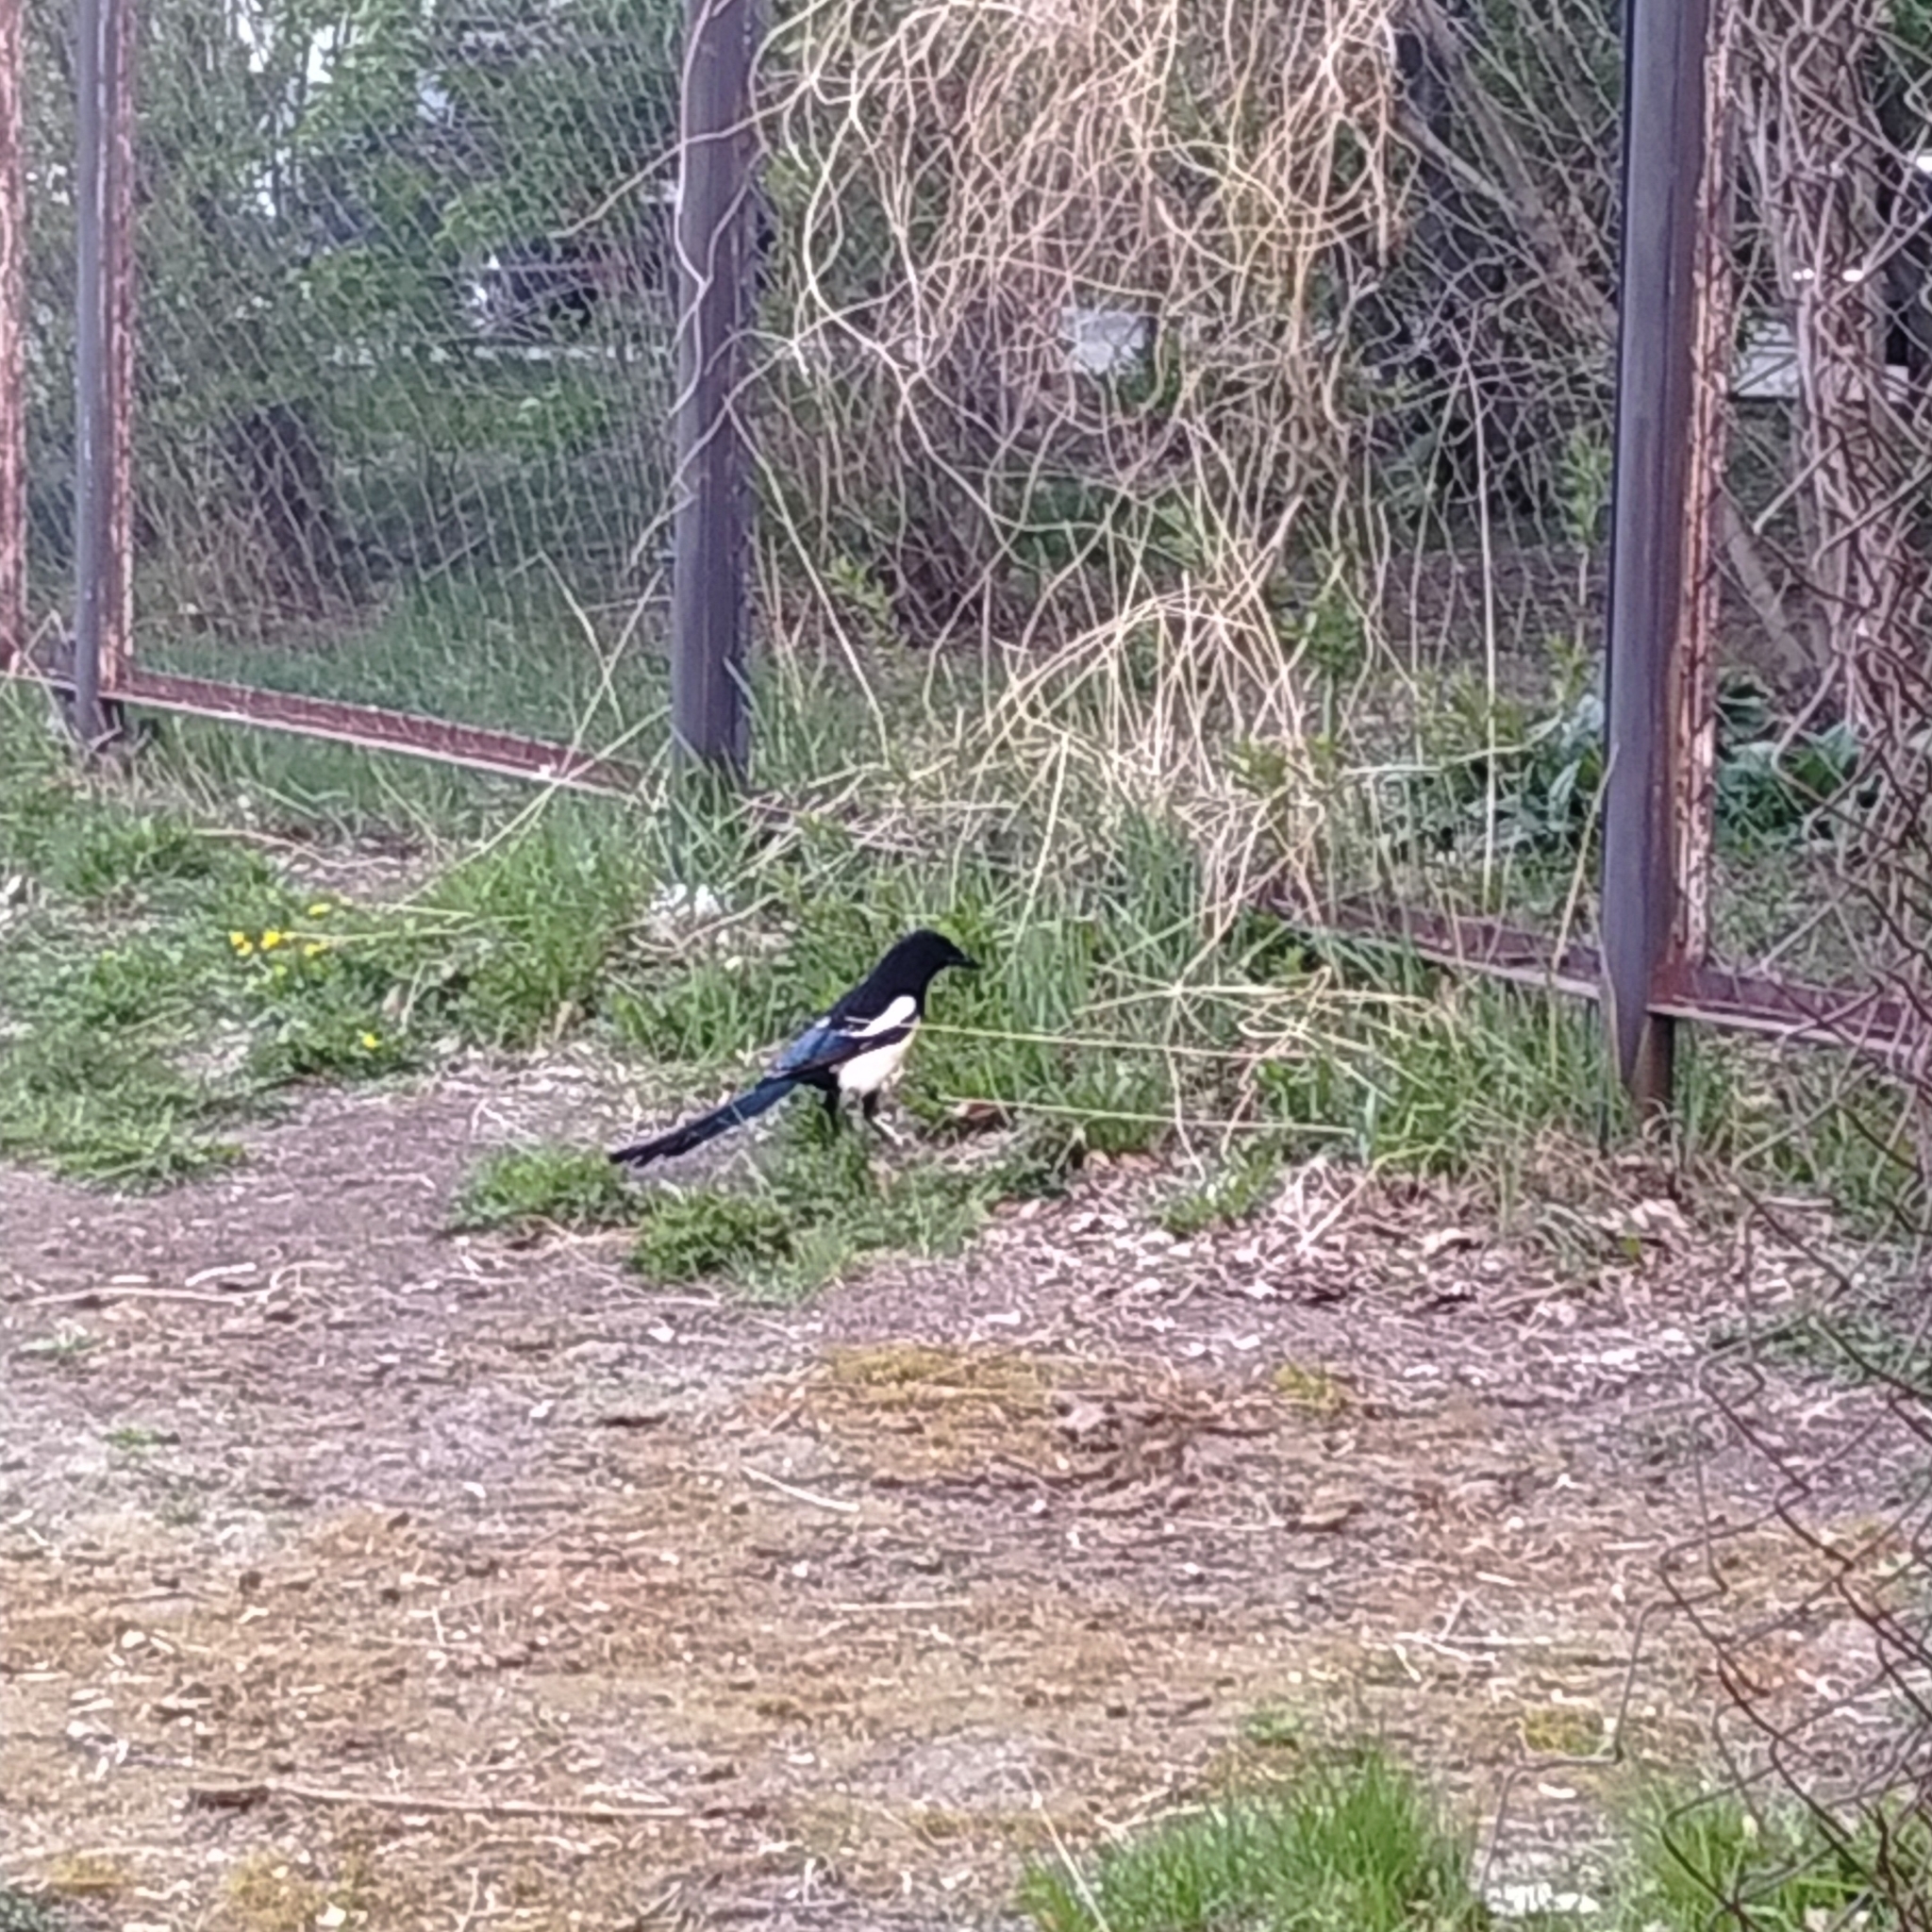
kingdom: Animalia
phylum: Chordata
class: Aves
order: Passeriformes
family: Corvidae
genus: Pica
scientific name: Pica pica
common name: Eurasian magpie
